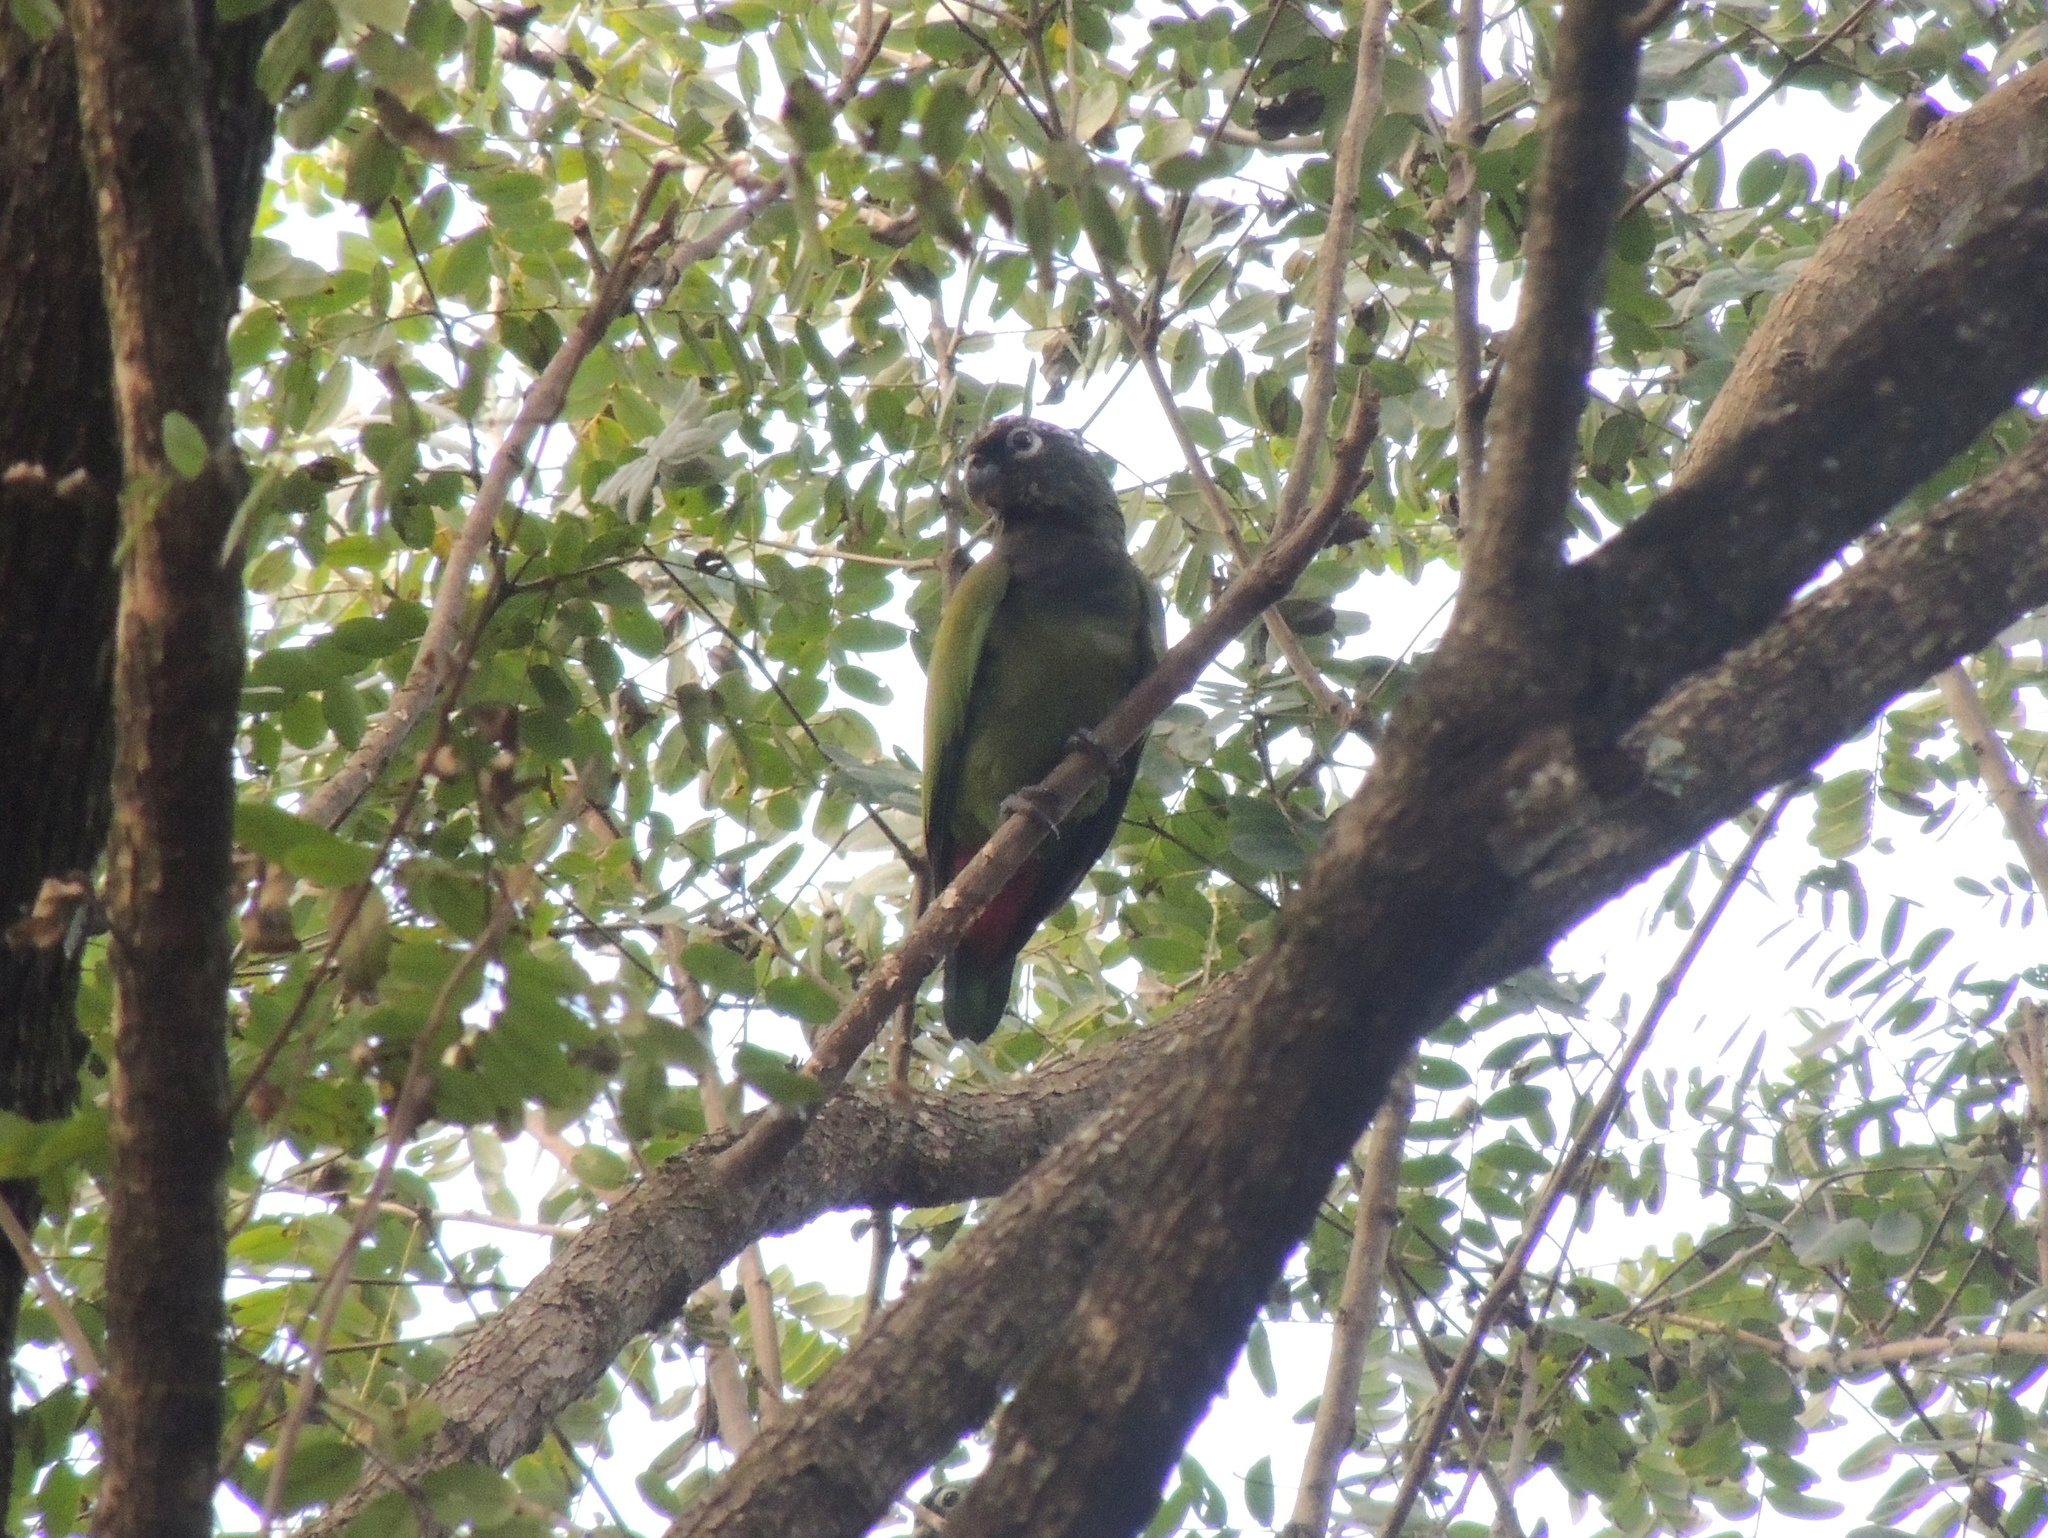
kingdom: Animalia
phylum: Chordata
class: Aves
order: Psittaciformes
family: Psittacidae
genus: Pionus
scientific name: Pionus maximiliani
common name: Scaly-headed parrot
